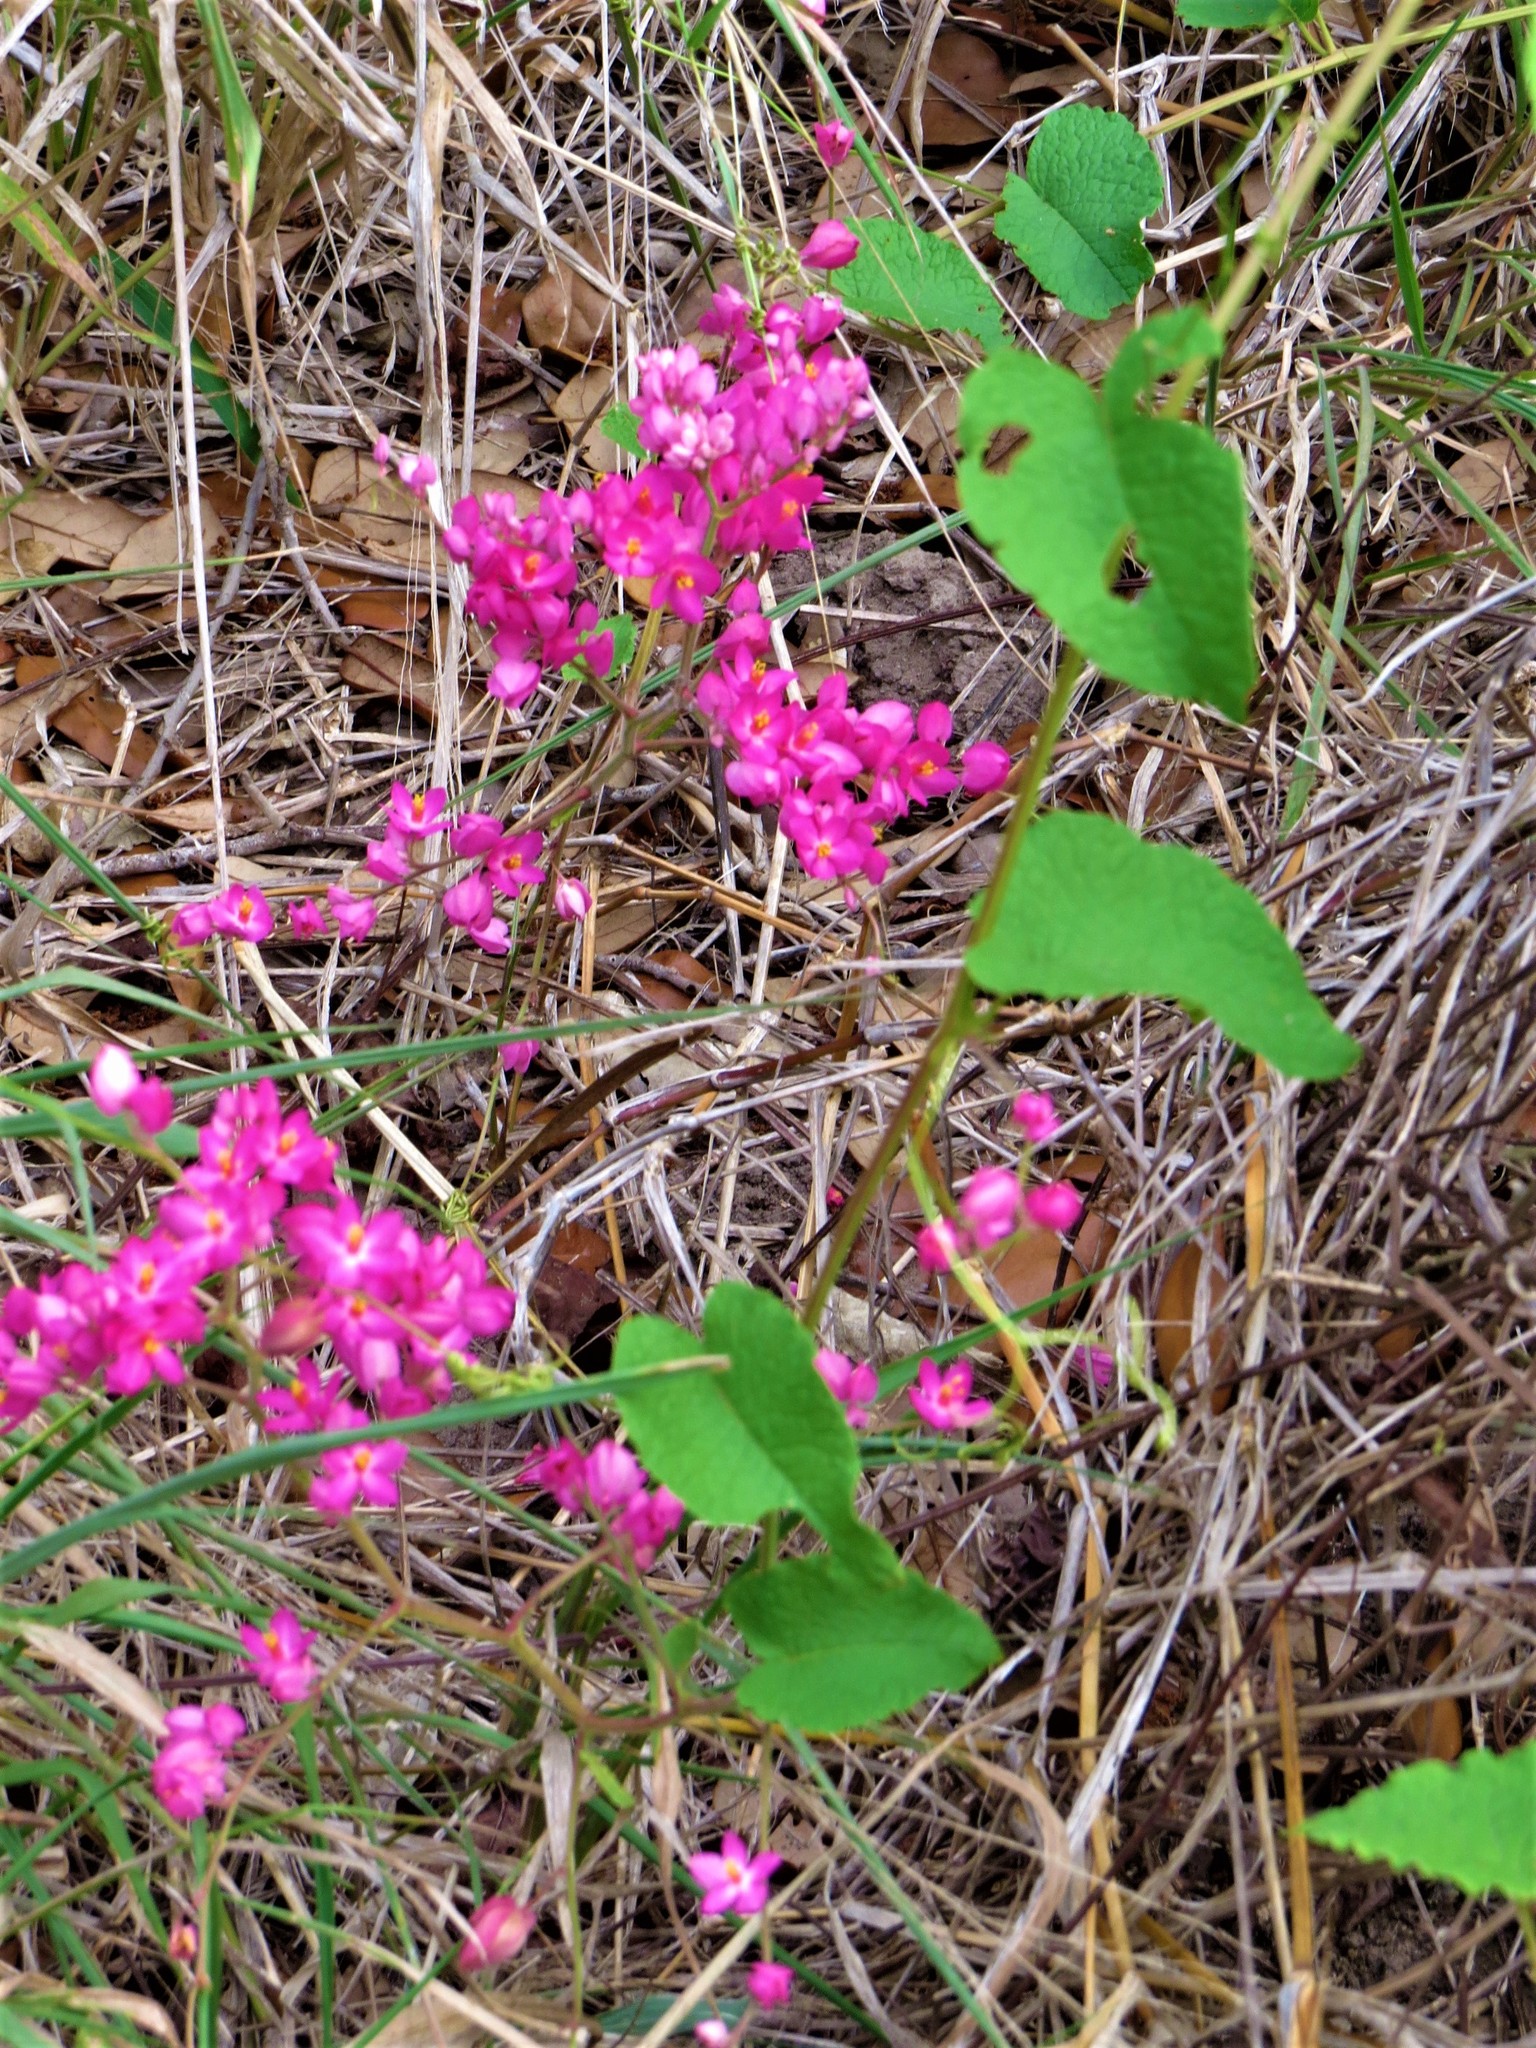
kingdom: Plantae
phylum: Tracheophyta
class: Magnoliopsida
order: Caryophyllales
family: Polygonaceae
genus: Antigonon
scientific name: Antigonon leptopus
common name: Coral vine
